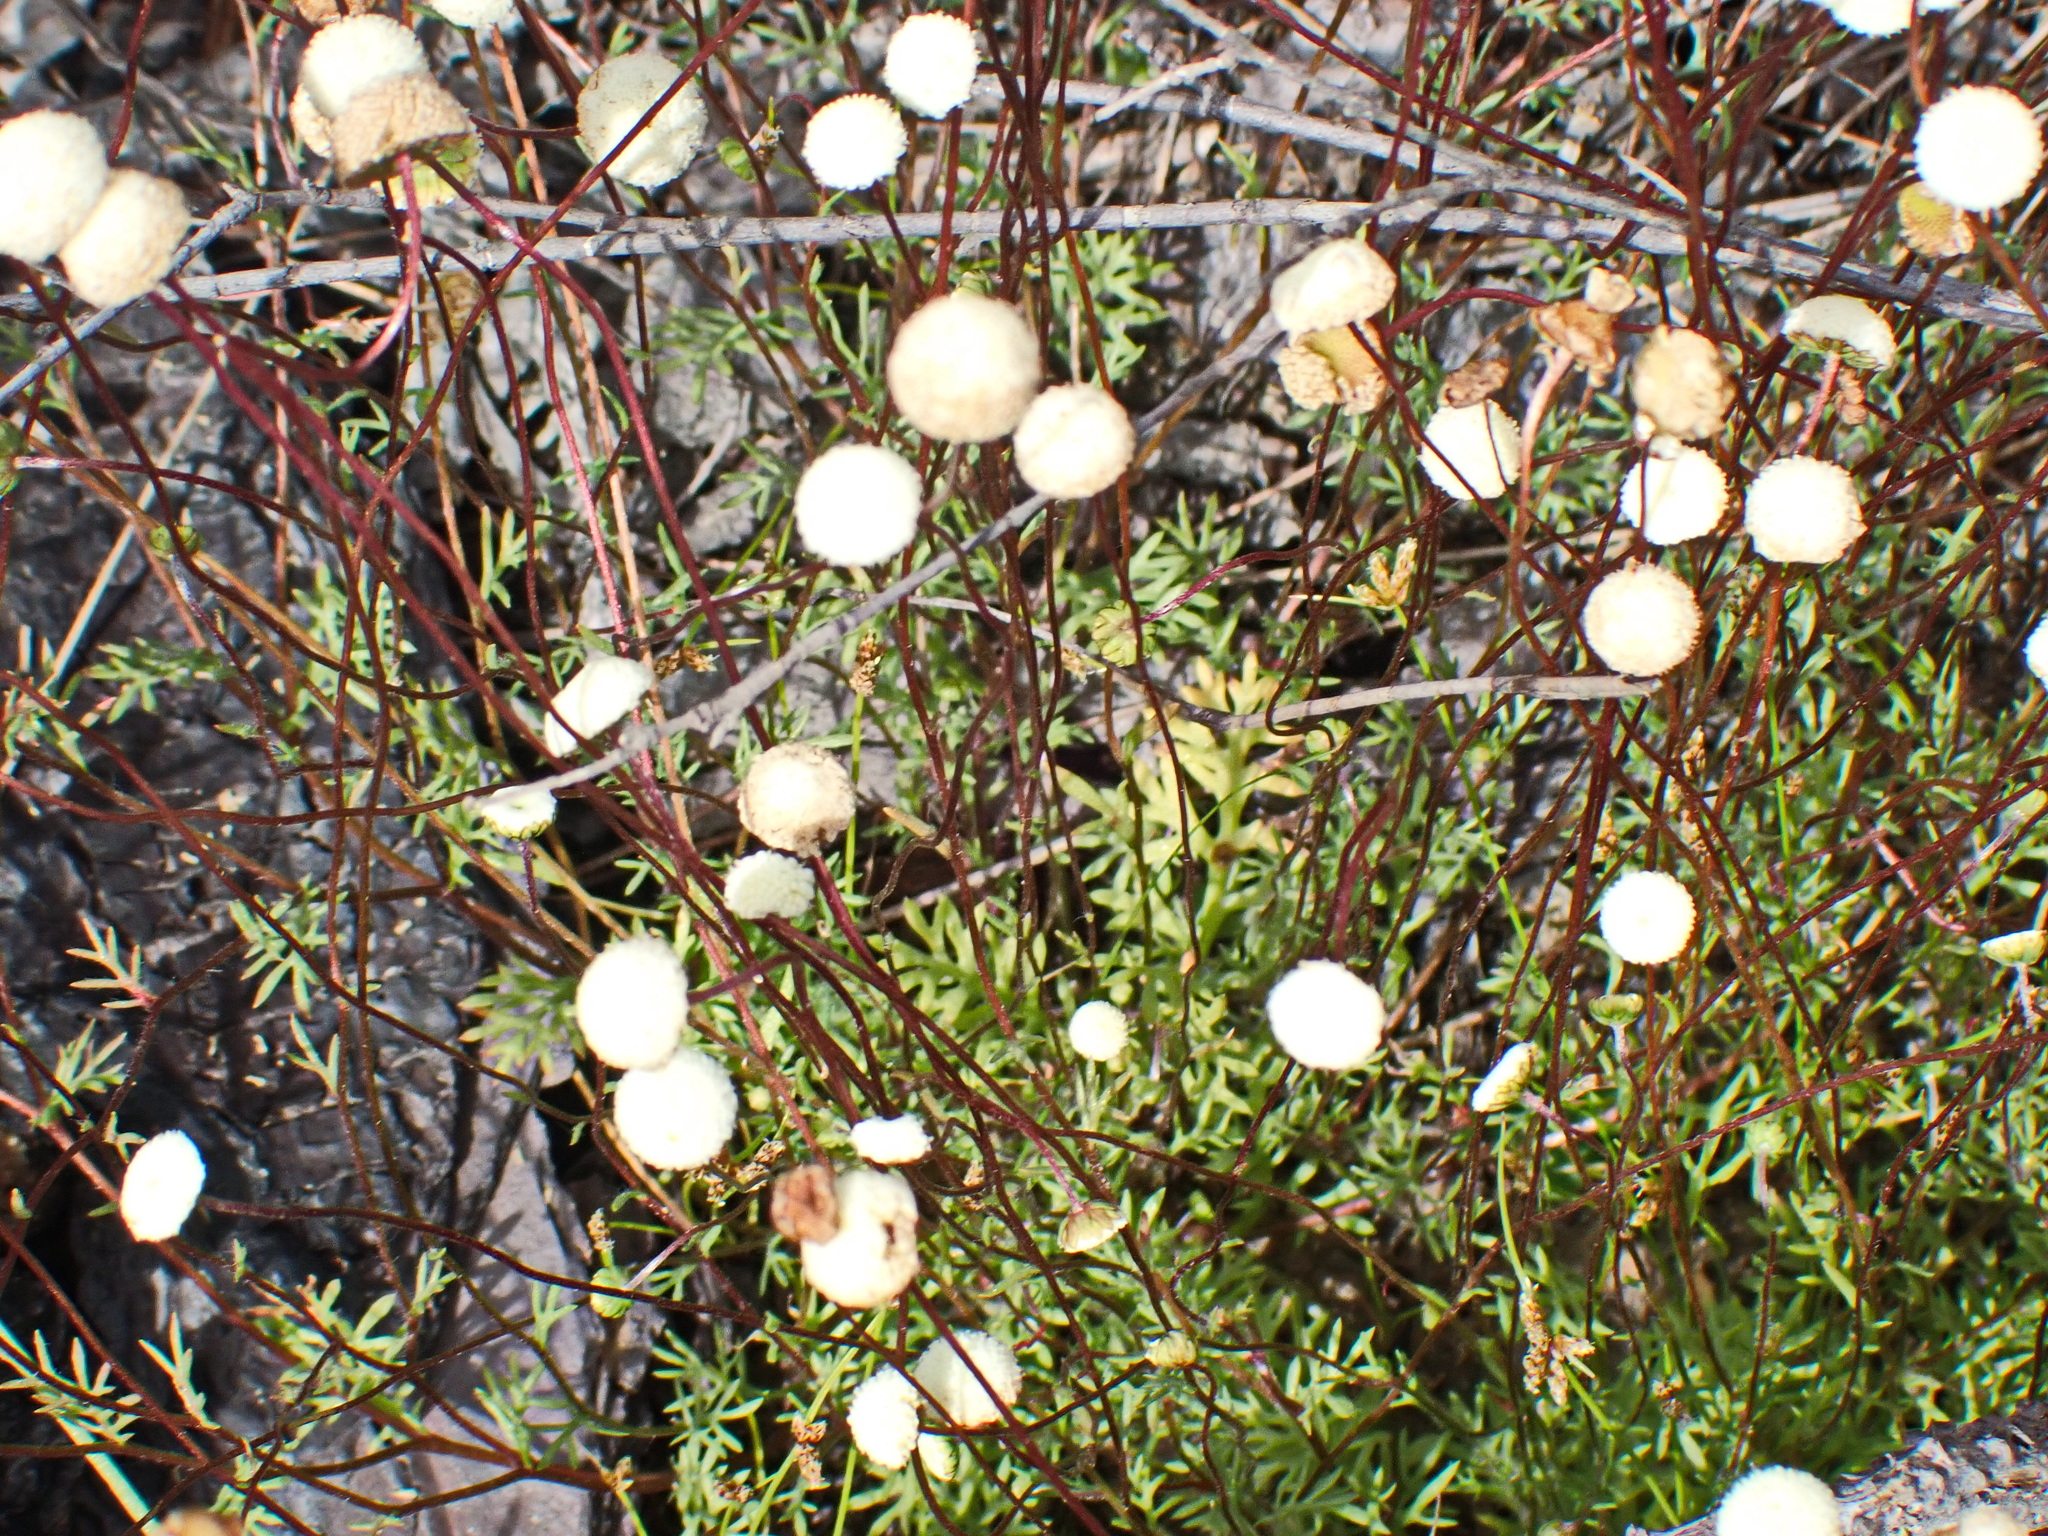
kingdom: Plantae
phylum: Tracheophyta
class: Magnoliopsida
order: Asterales
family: Asteraceae
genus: Cotula
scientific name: Cotula laxa
